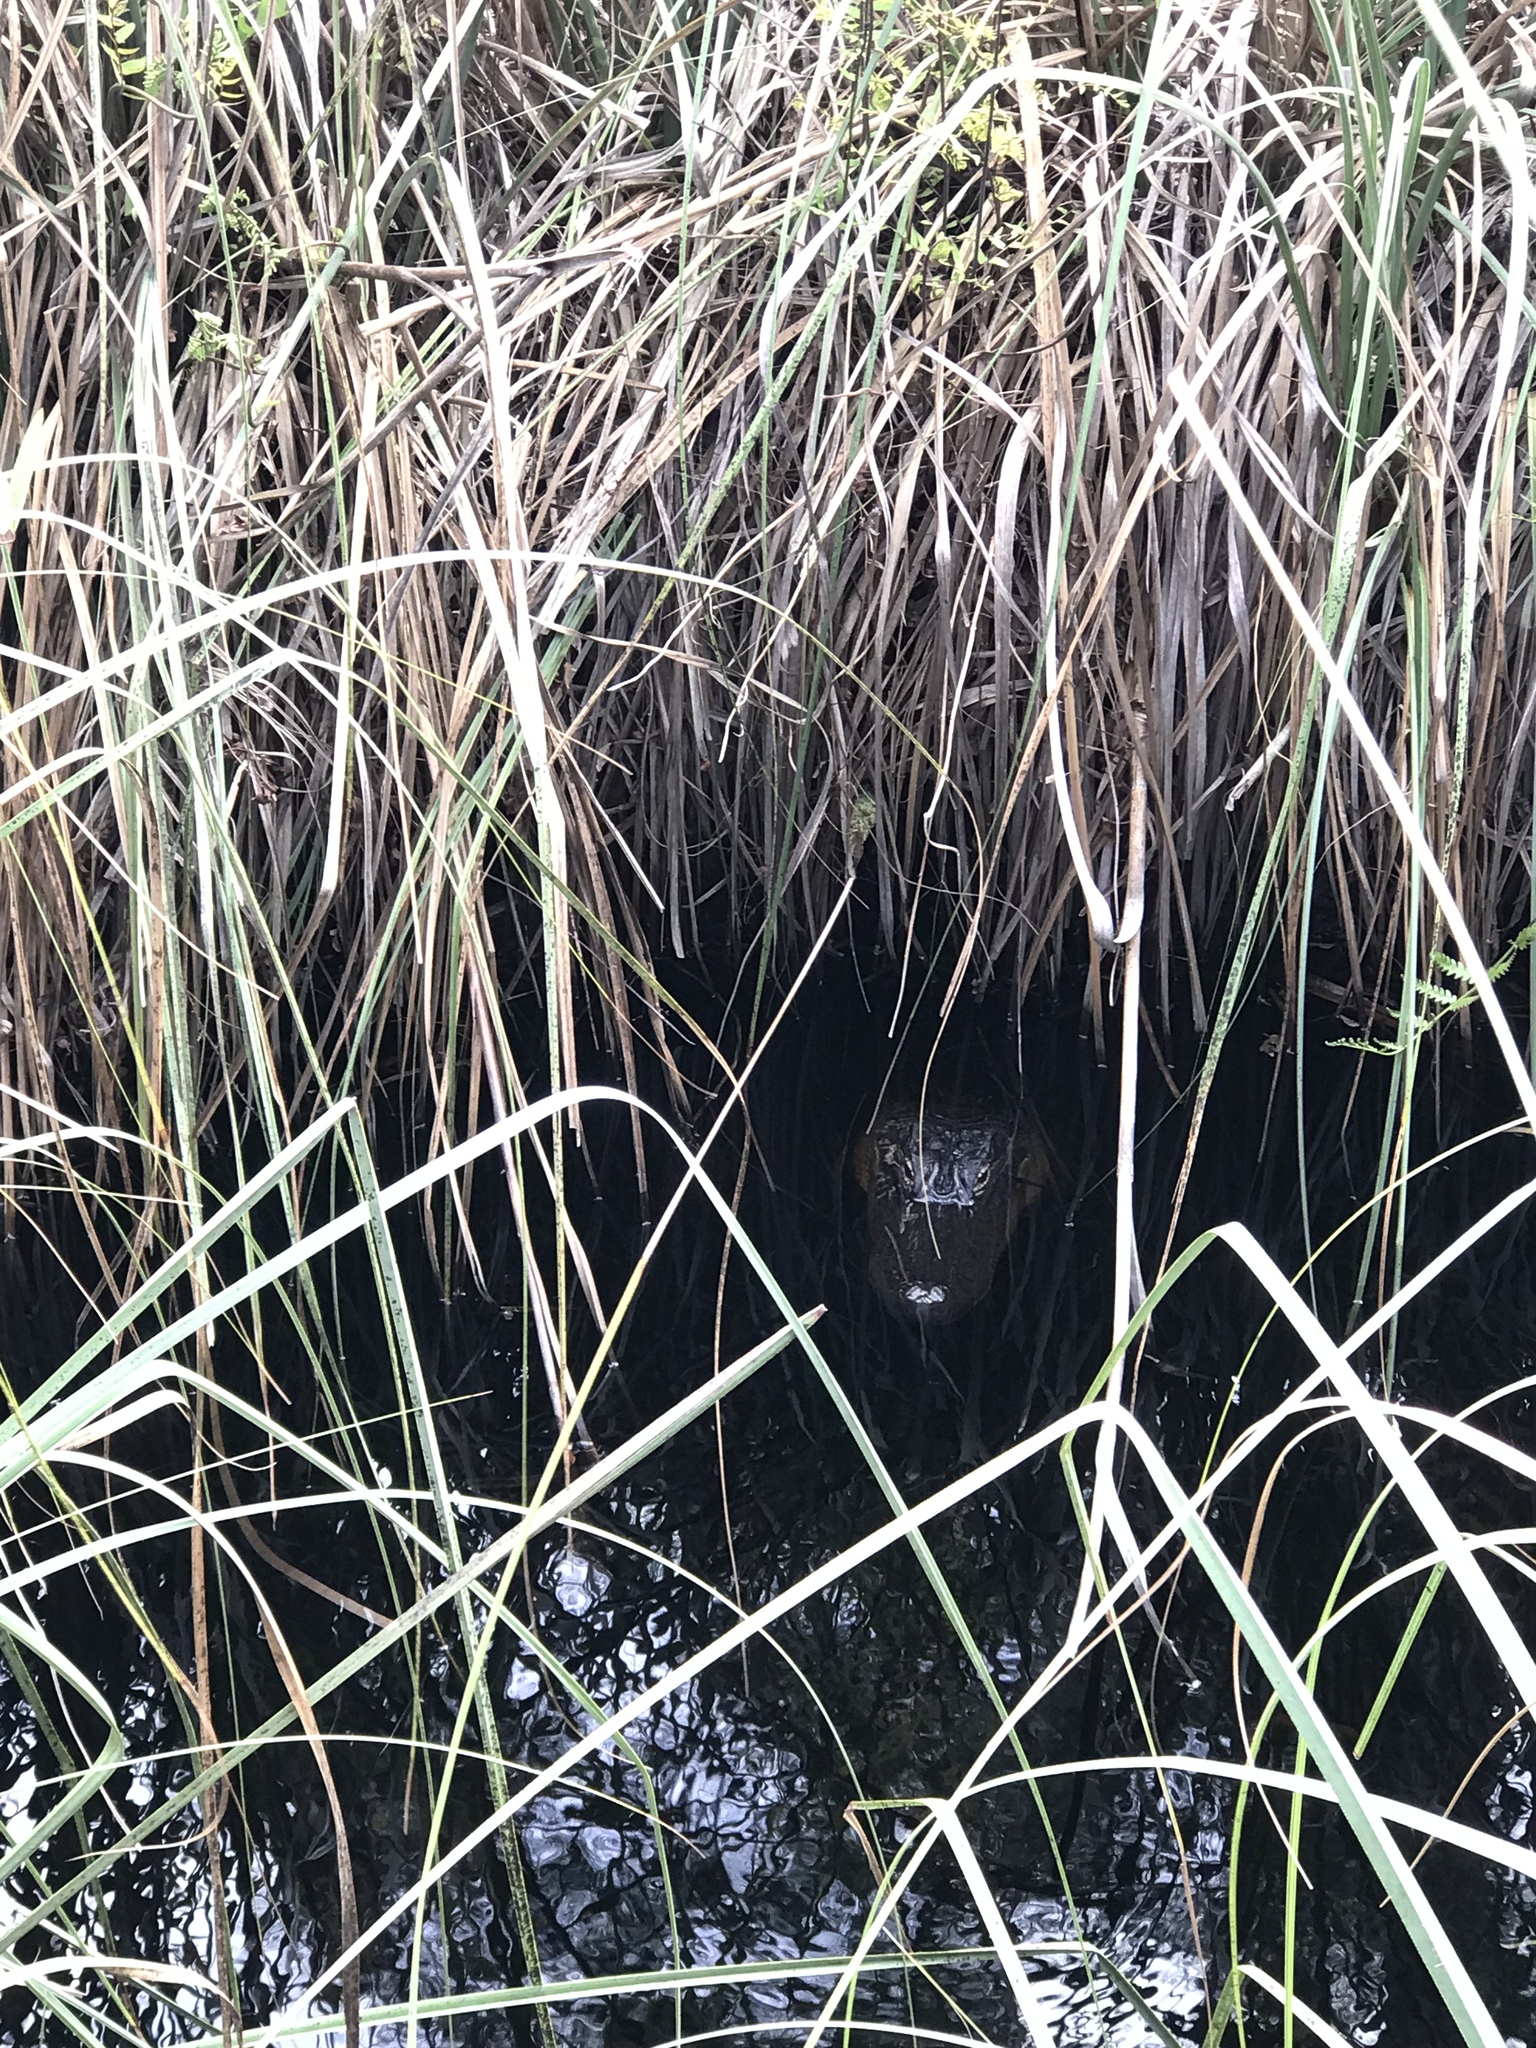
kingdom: Animalia
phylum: Chordata
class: Crocodylia
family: Alligatoridae
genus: Alligator
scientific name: Alligator mississippiensis
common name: American alligator
